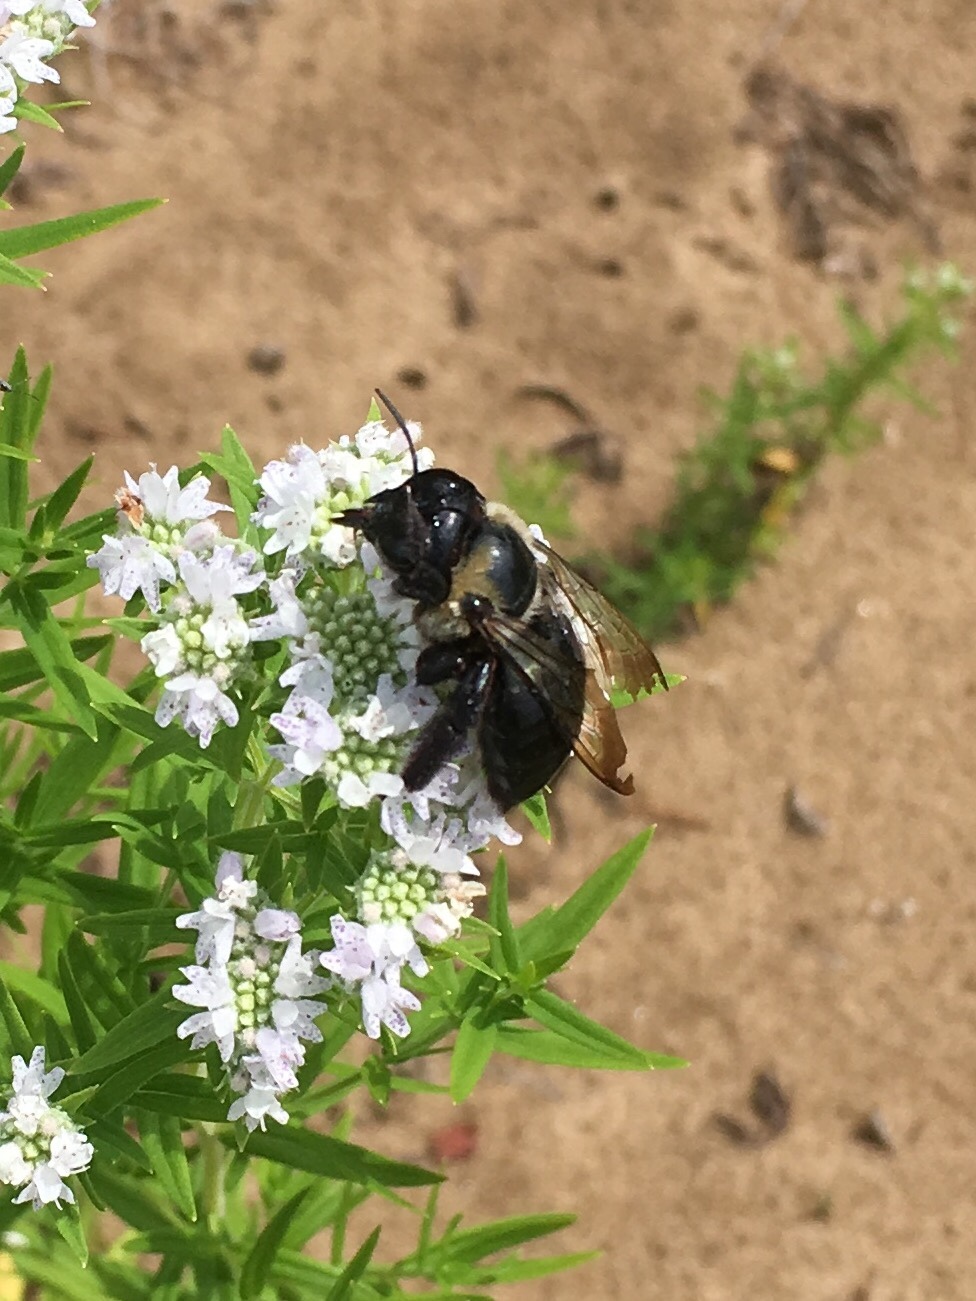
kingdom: Animalia
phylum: Arthropoda
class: Insecta
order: Hymenoptera
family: Apidae
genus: Xylocopa
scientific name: Xylocopa virginica
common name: Carpenter bee
